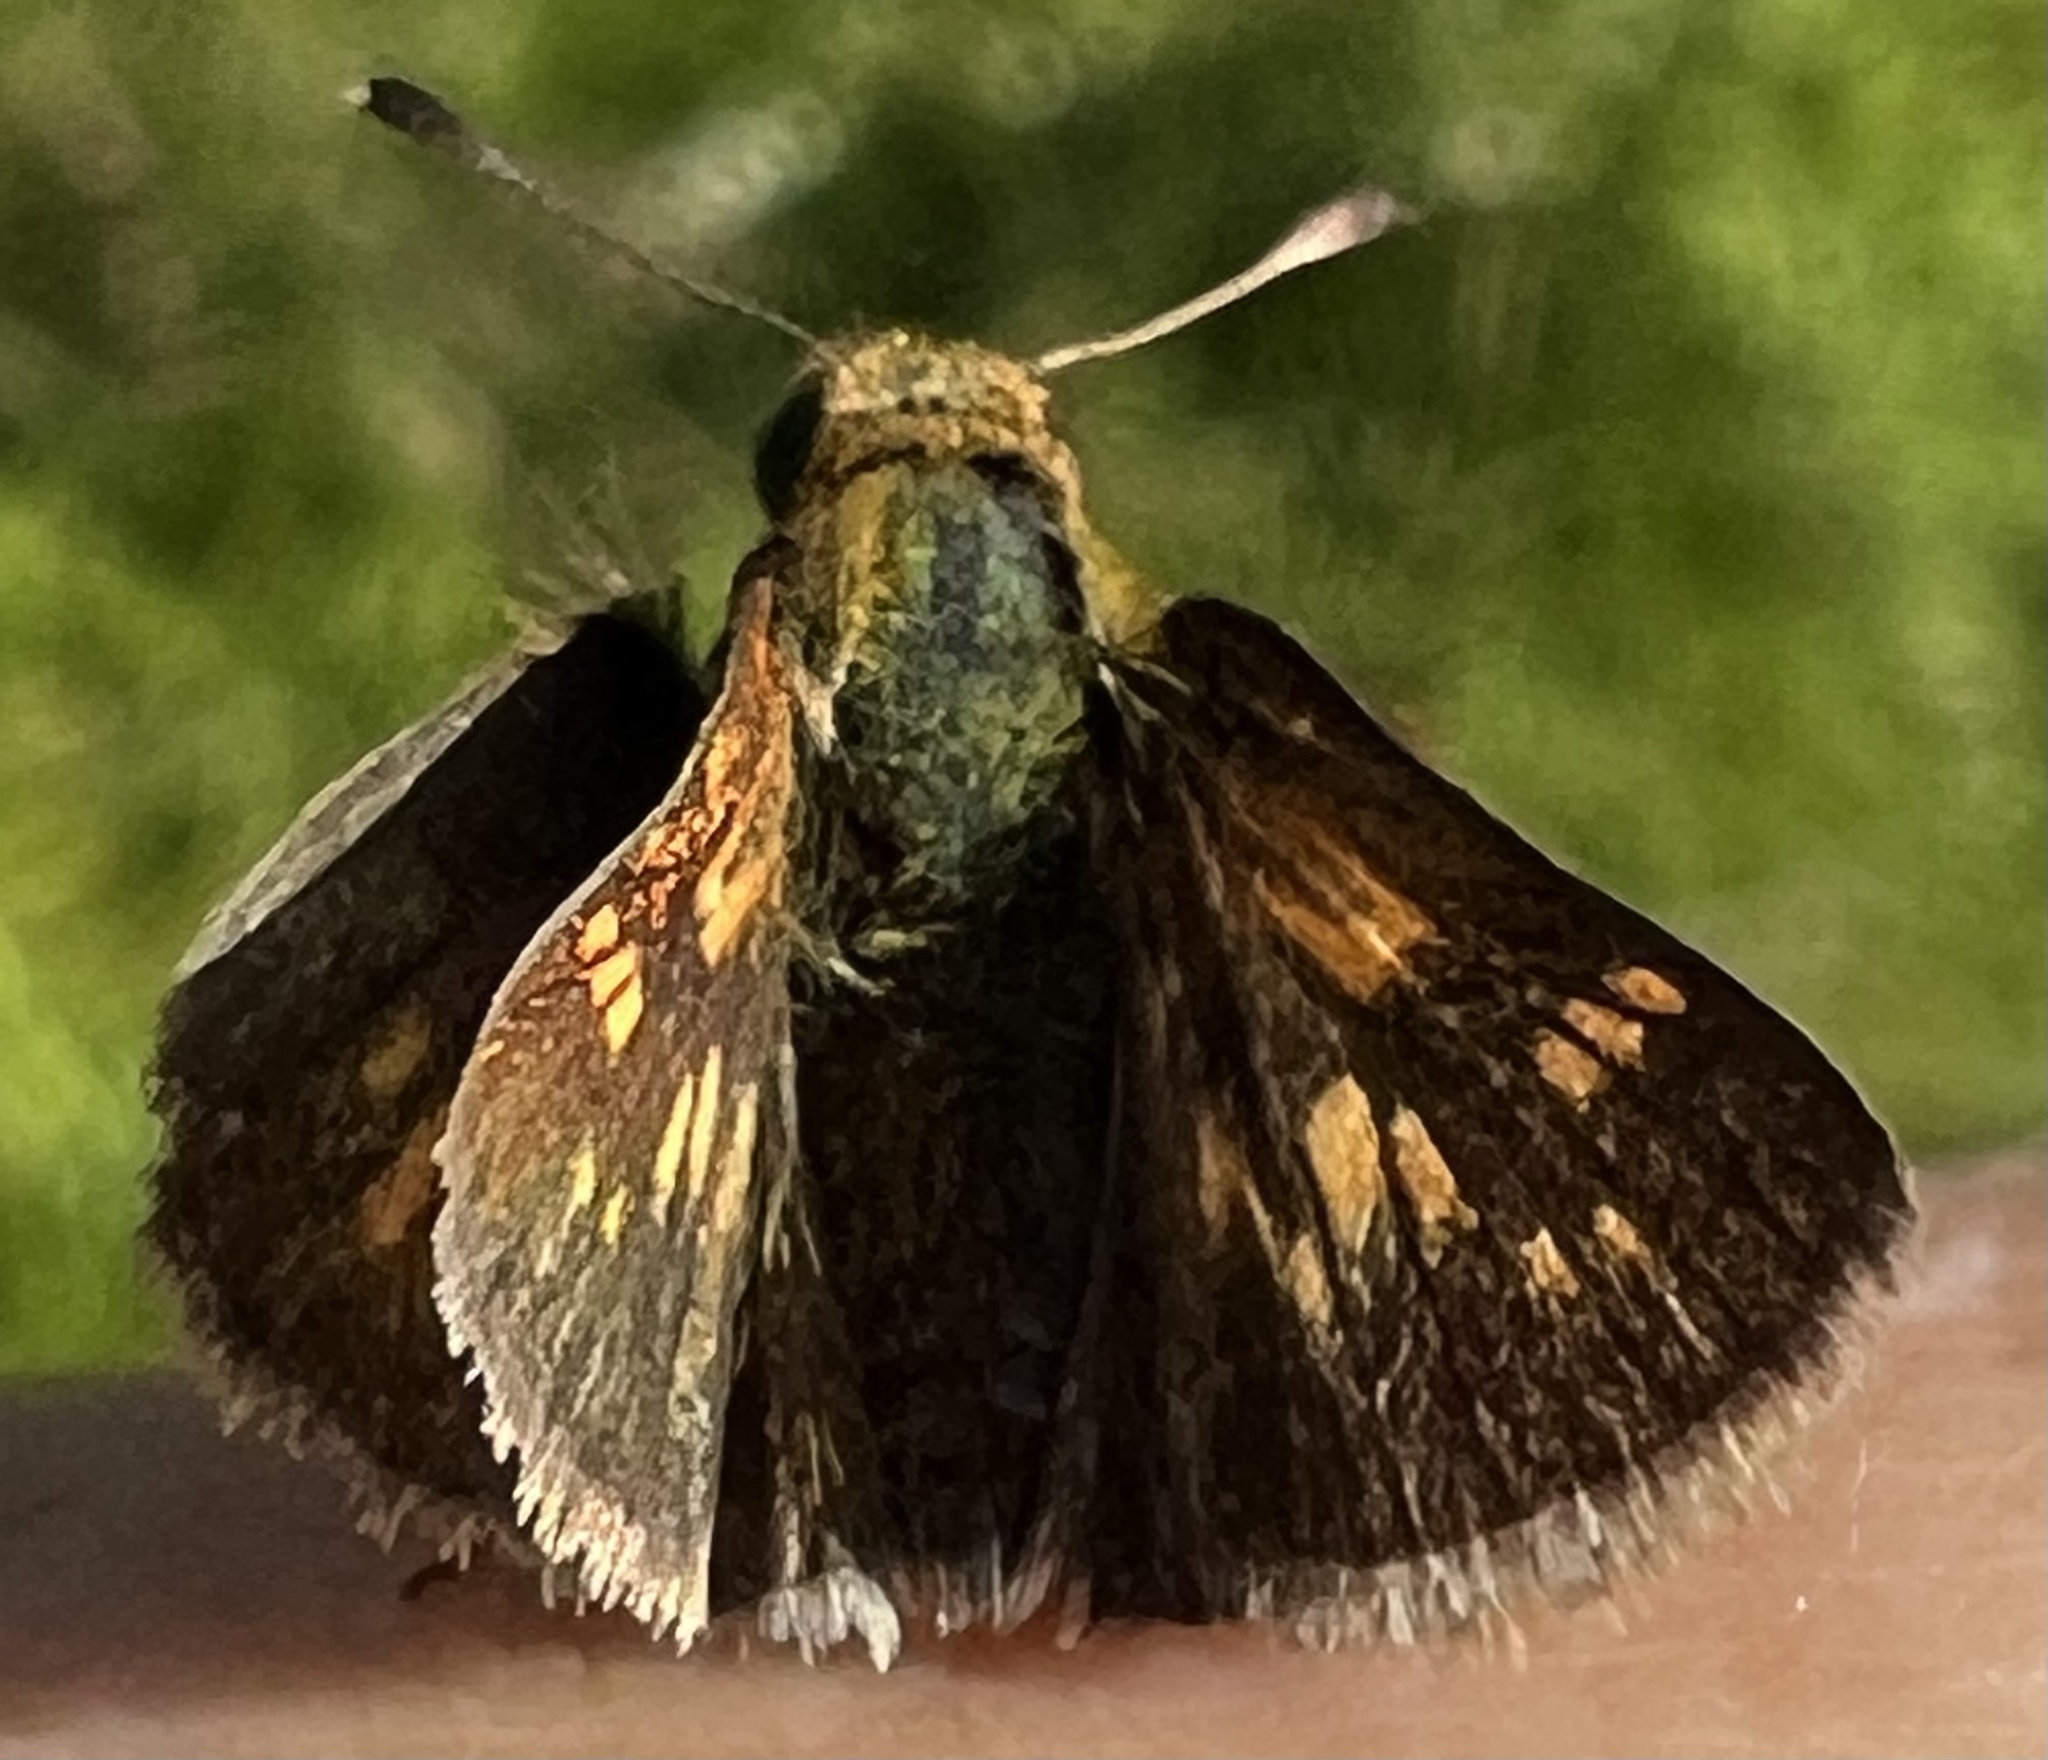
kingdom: Animalia
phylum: Arthropoda
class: Insecta
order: Lepidoptera
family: Hesperiidae
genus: Polites
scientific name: Polites coras
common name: Peck's skipper
